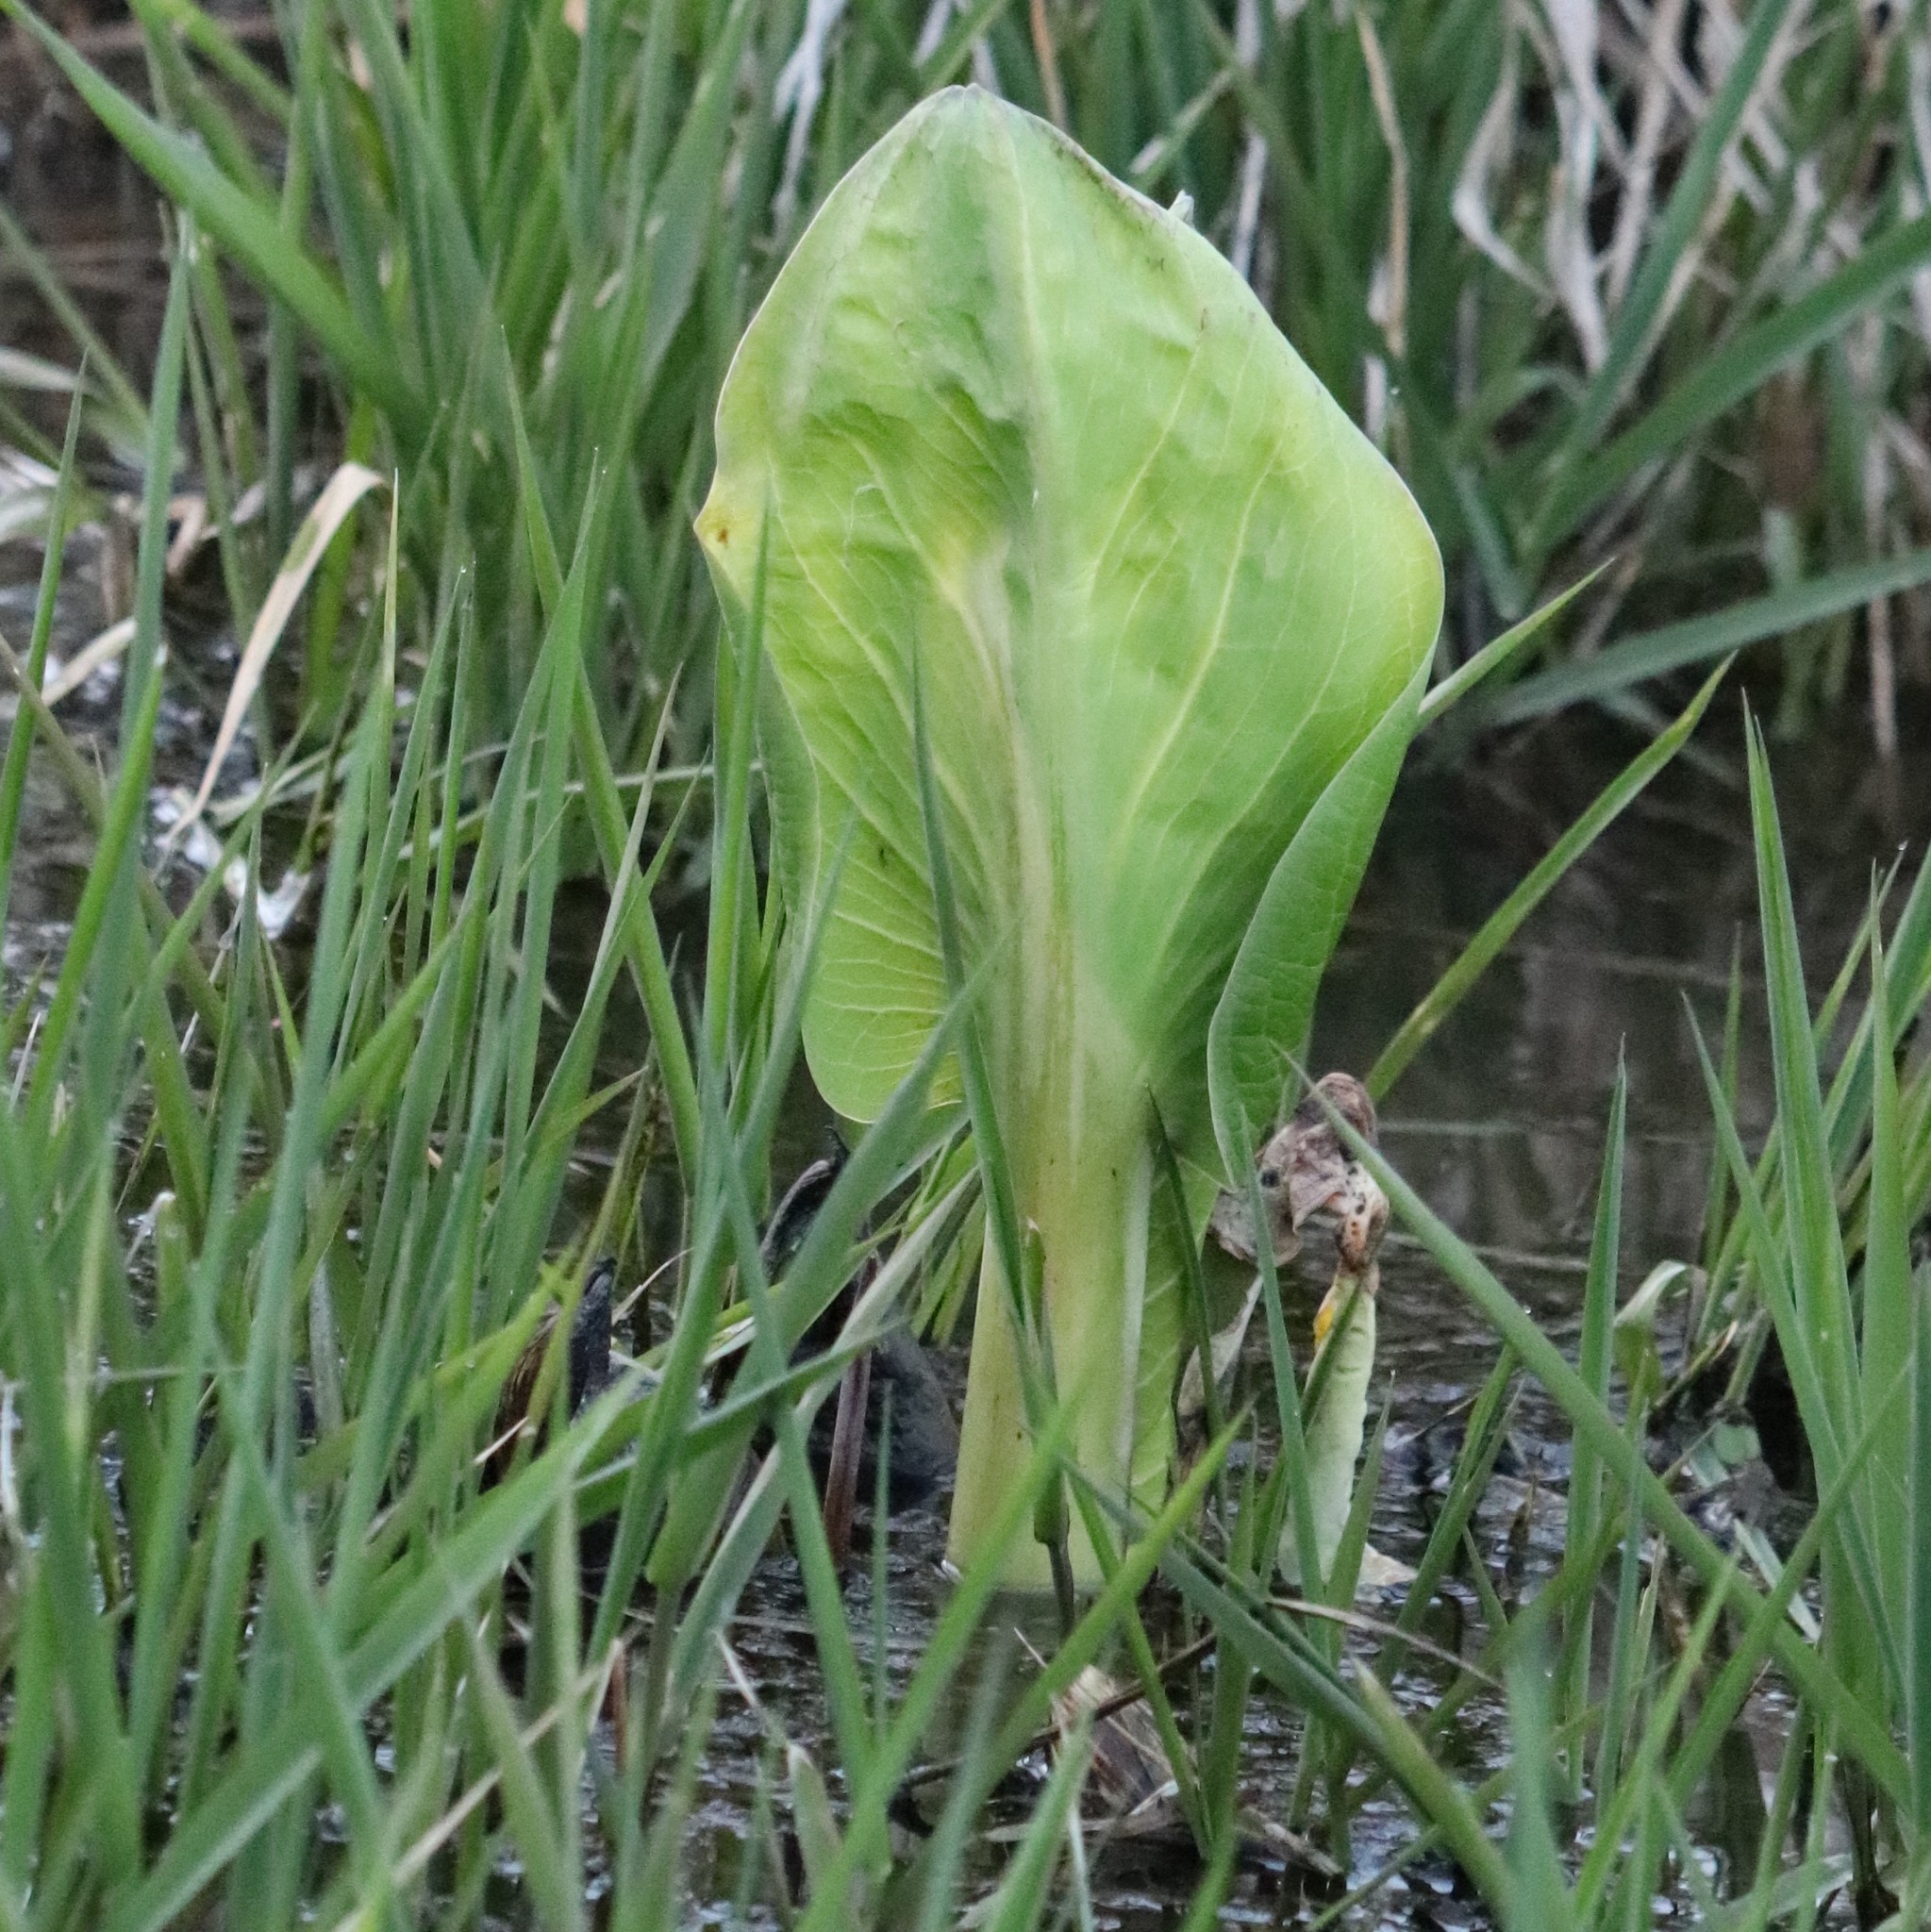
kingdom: Plantae
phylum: Tracheophyta
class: Liliopsida
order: Alismatales
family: Araceae
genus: Symplocarpus
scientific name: Symplocarpus foetidus
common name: Eastern skunk cabbage
